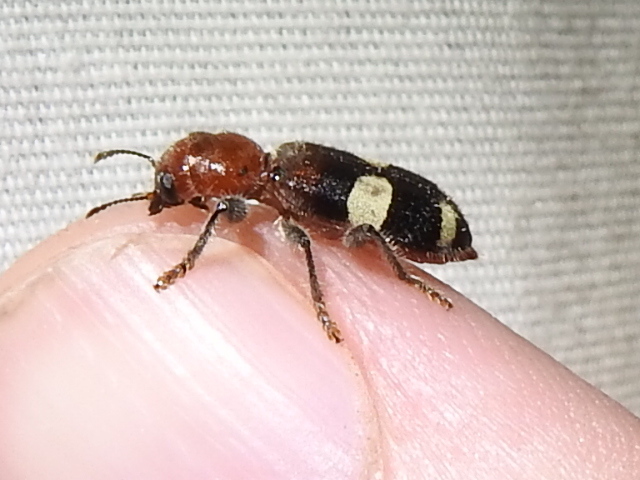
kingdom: Animalia
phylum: Arthropoda
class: Insecta
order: Coleoptera
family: Cleridae
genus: Enoclerus
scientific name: Enoclerus quadrisignatus
